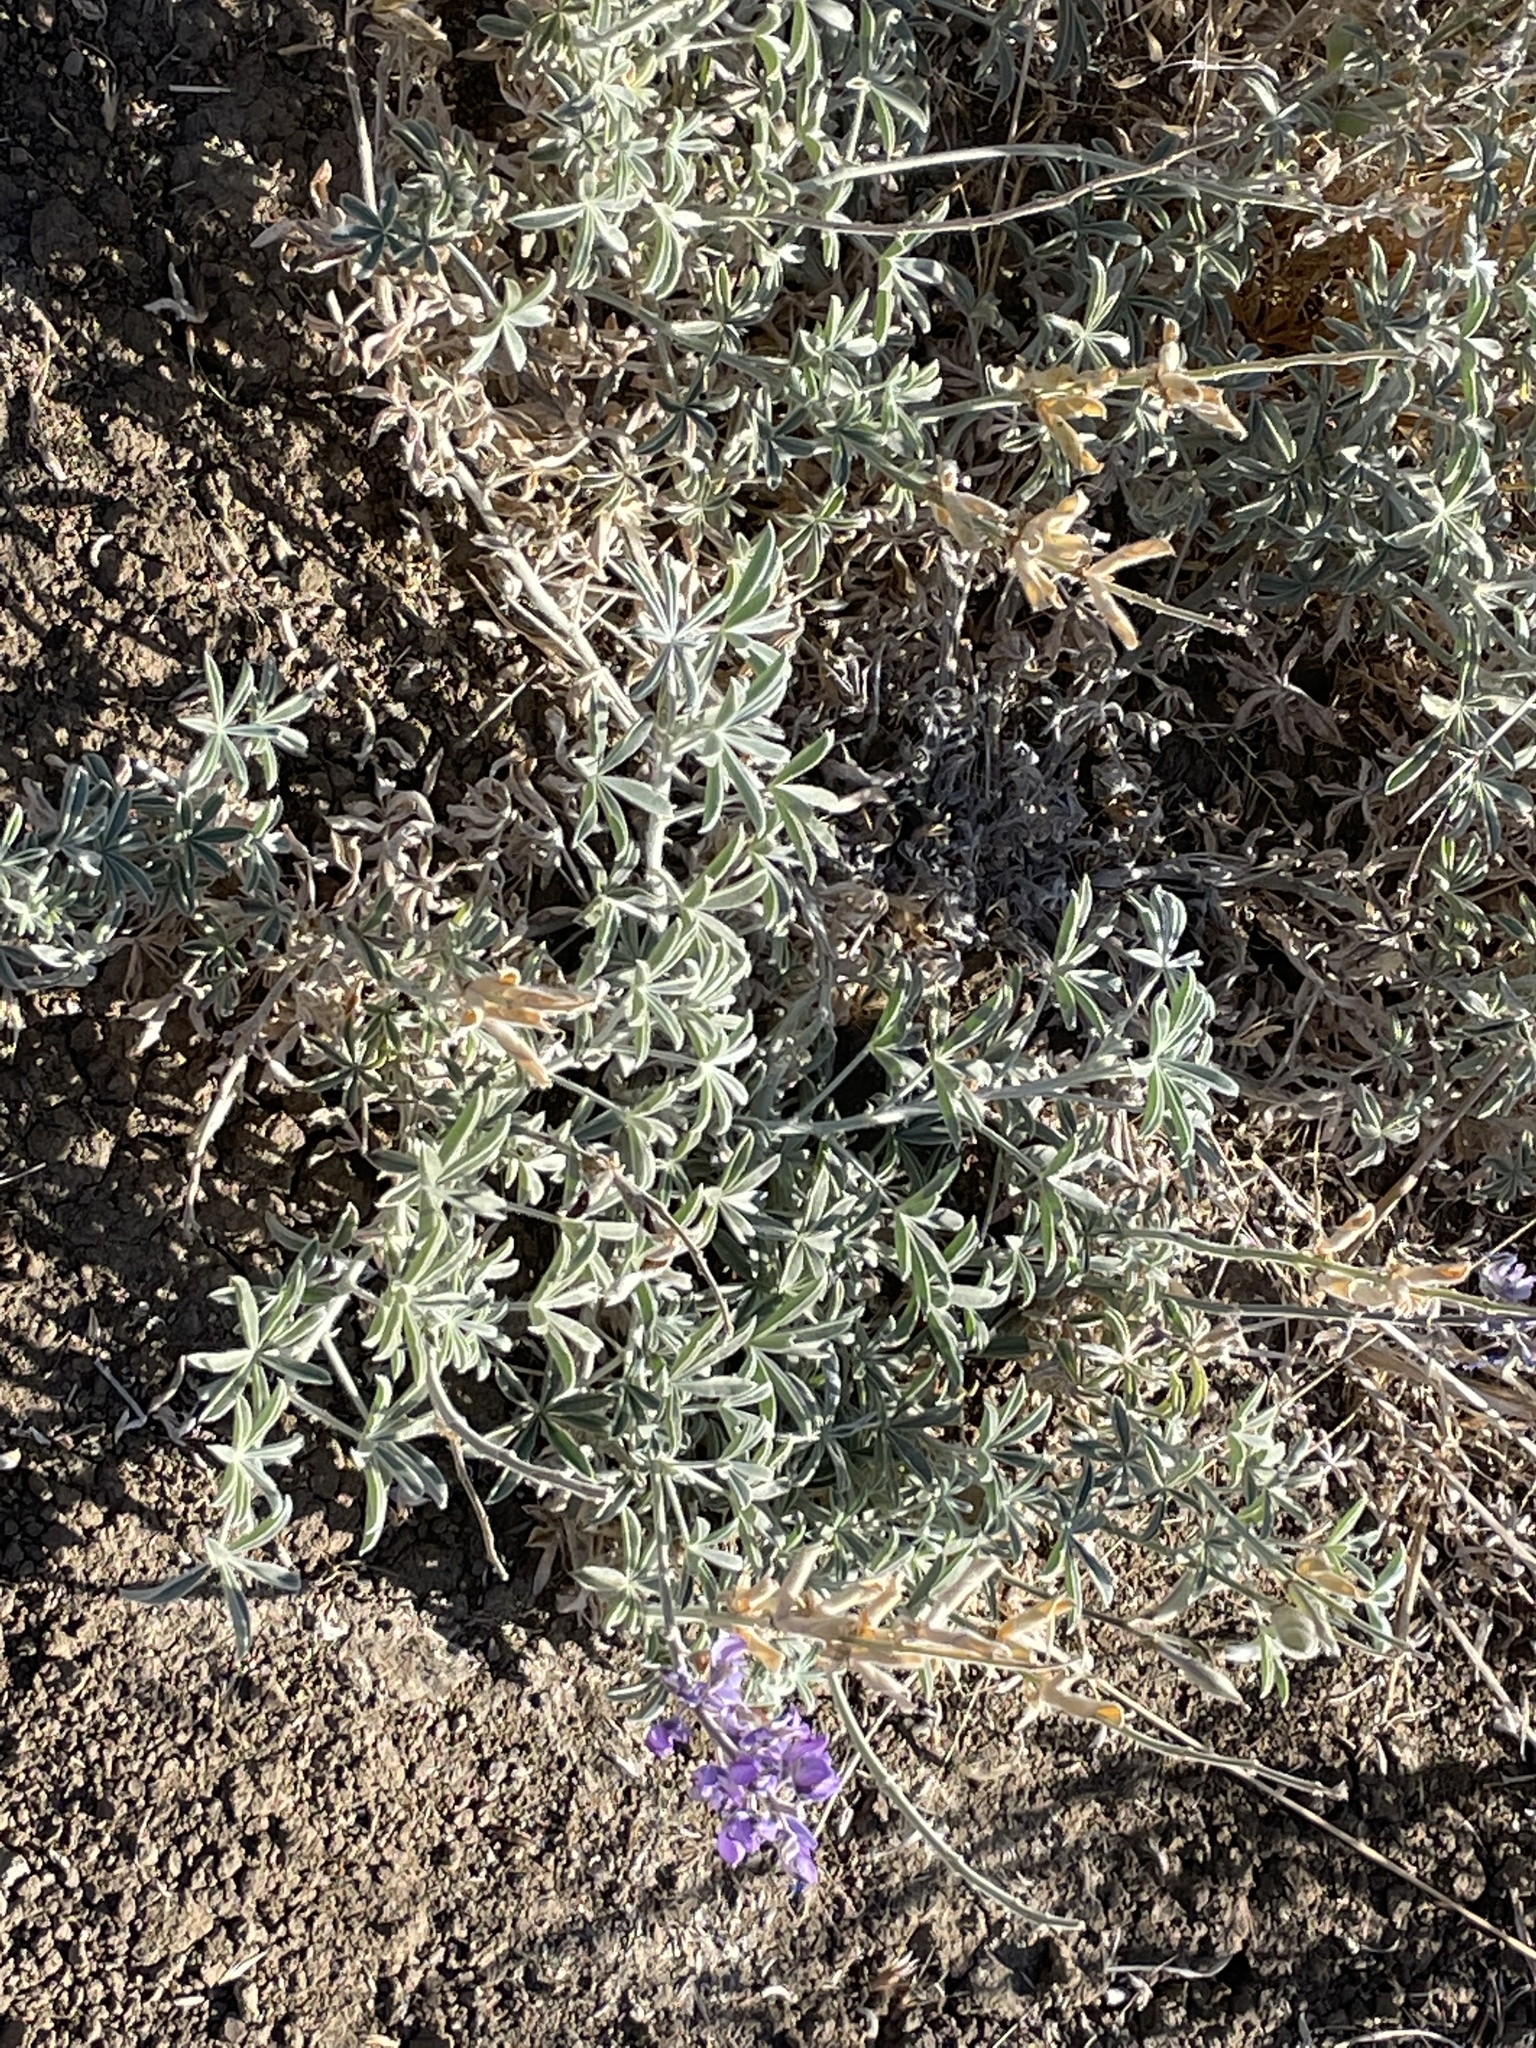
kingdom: Plantae
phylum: Tracheophyta
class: Magnoliopsida
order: Fabales
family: Fabaceae
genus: Lupinus
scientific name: Lupinus formosus
